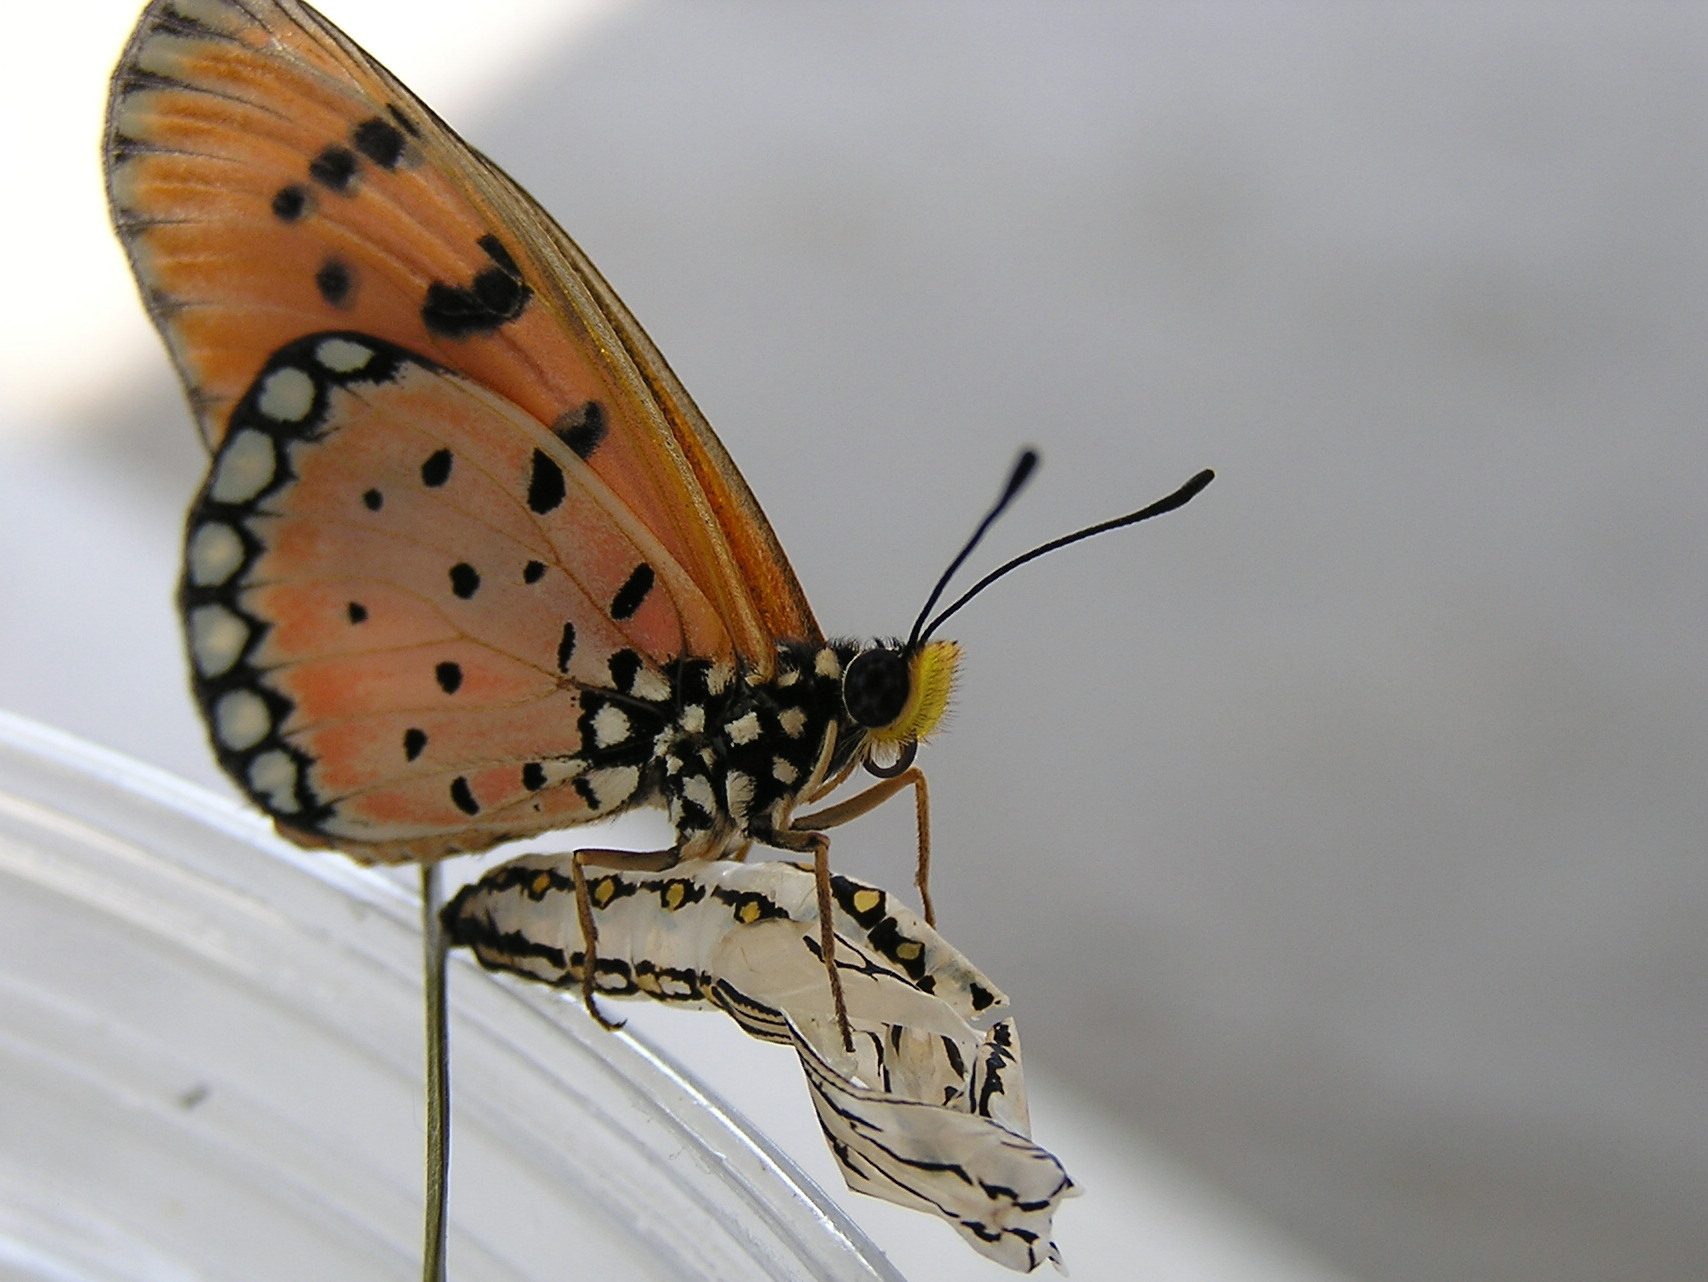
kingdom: Animalia
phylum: Arthropoda
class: Insecta
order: Lepidoptera
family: Nymphalidae
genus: Acraea
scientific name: Acraea terpsicore
